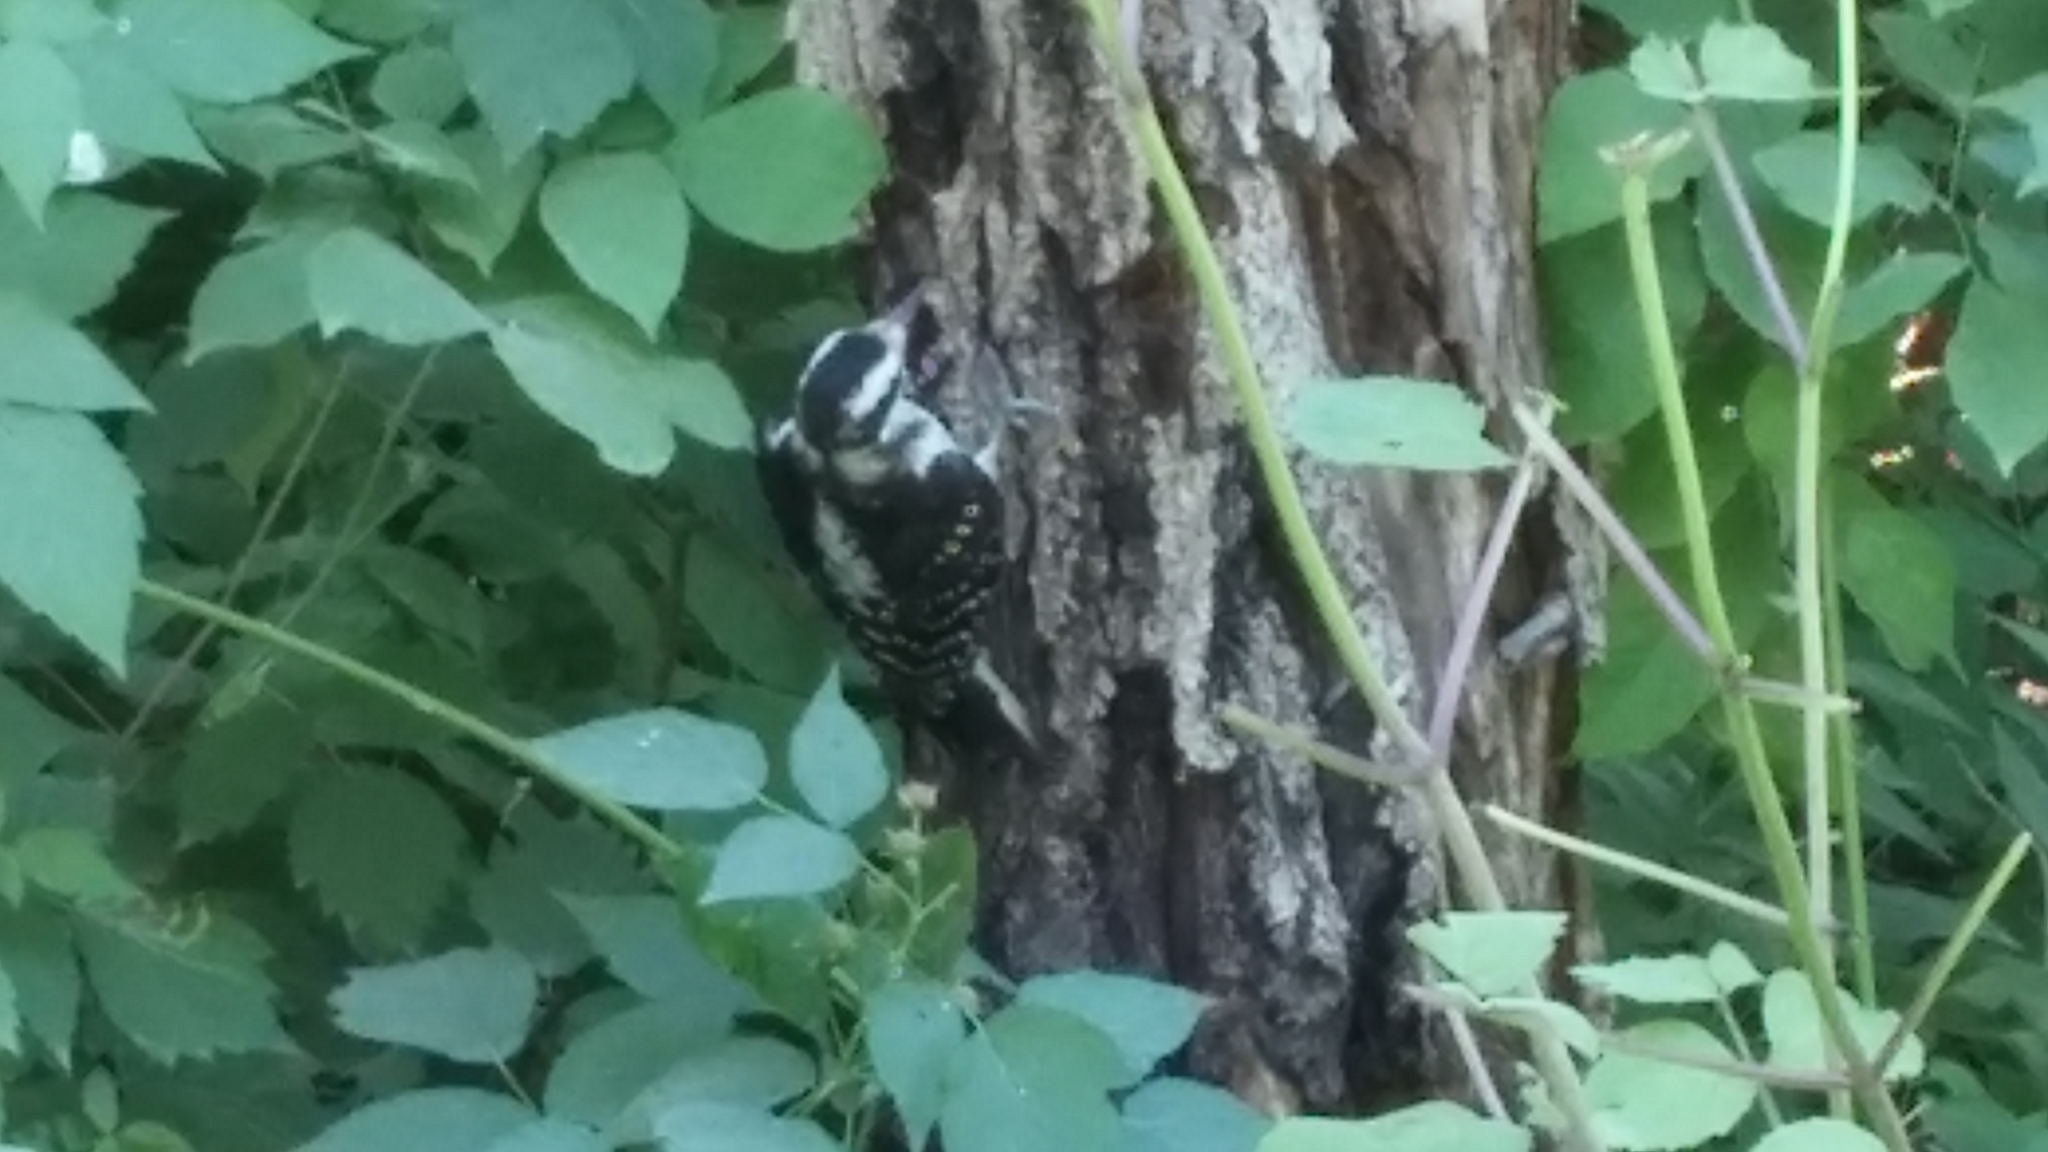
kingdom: Animalia
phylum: Chordata
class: Aves
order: Piciformes
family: Picidae
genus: Leuconotopicus
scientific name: Leuconotopicus villosus
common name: Hairy woodpecker
